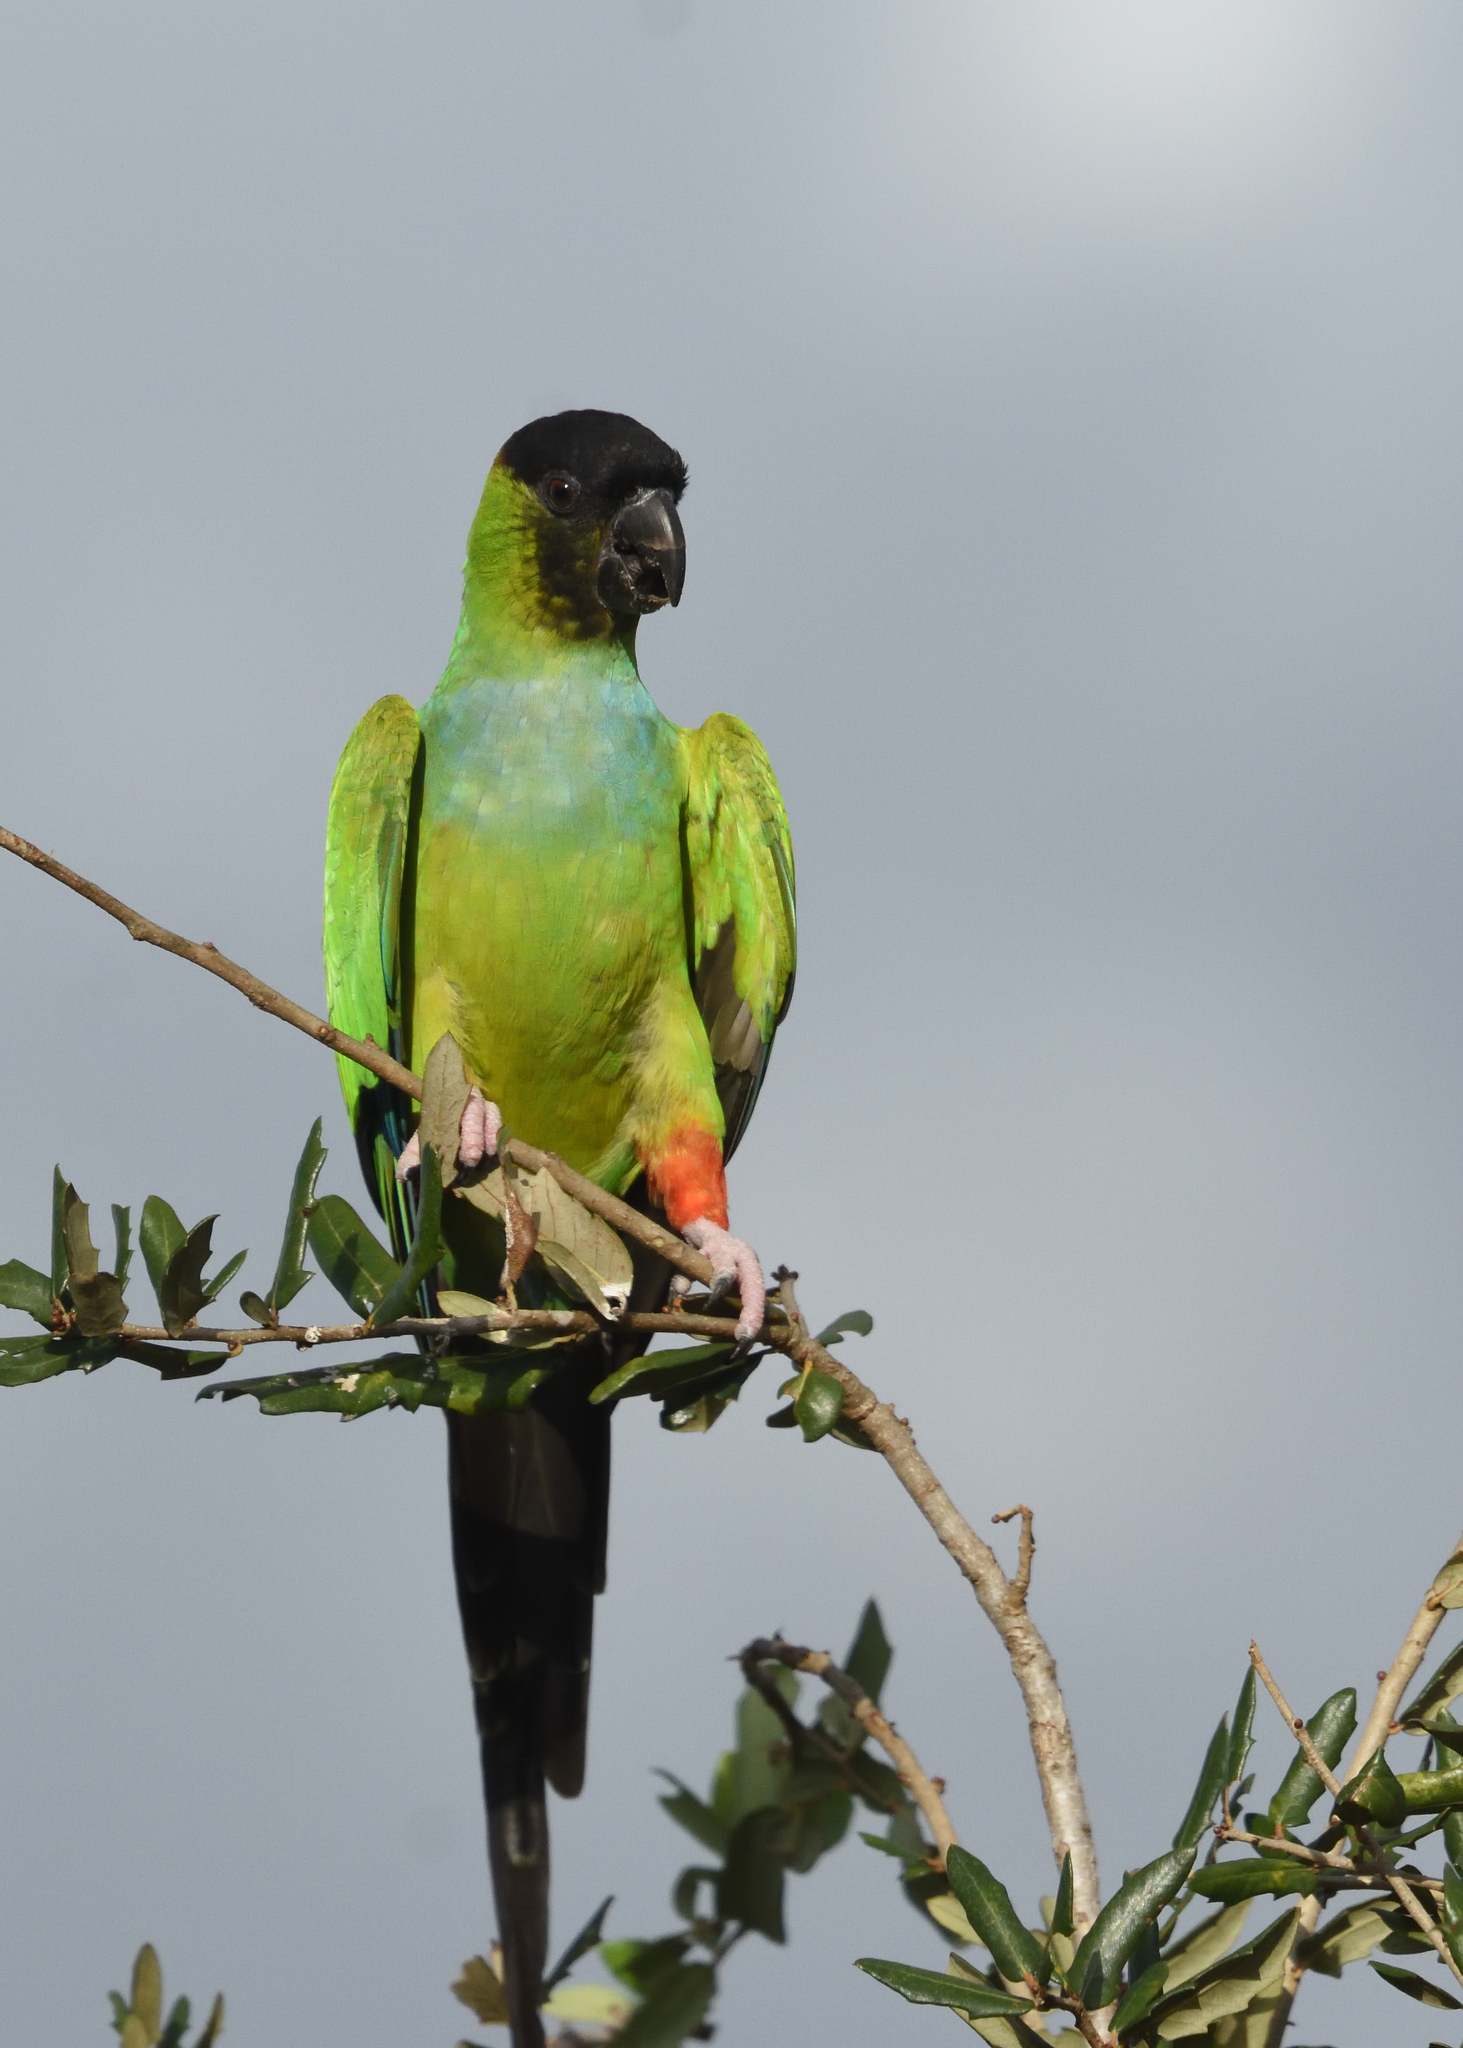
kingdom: Animalia
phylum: Chordata
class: Aves
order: Psittaciformes
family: Psittacidae
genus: Nandayus
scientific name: Nandayus nenday
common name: Nanday parakeet
